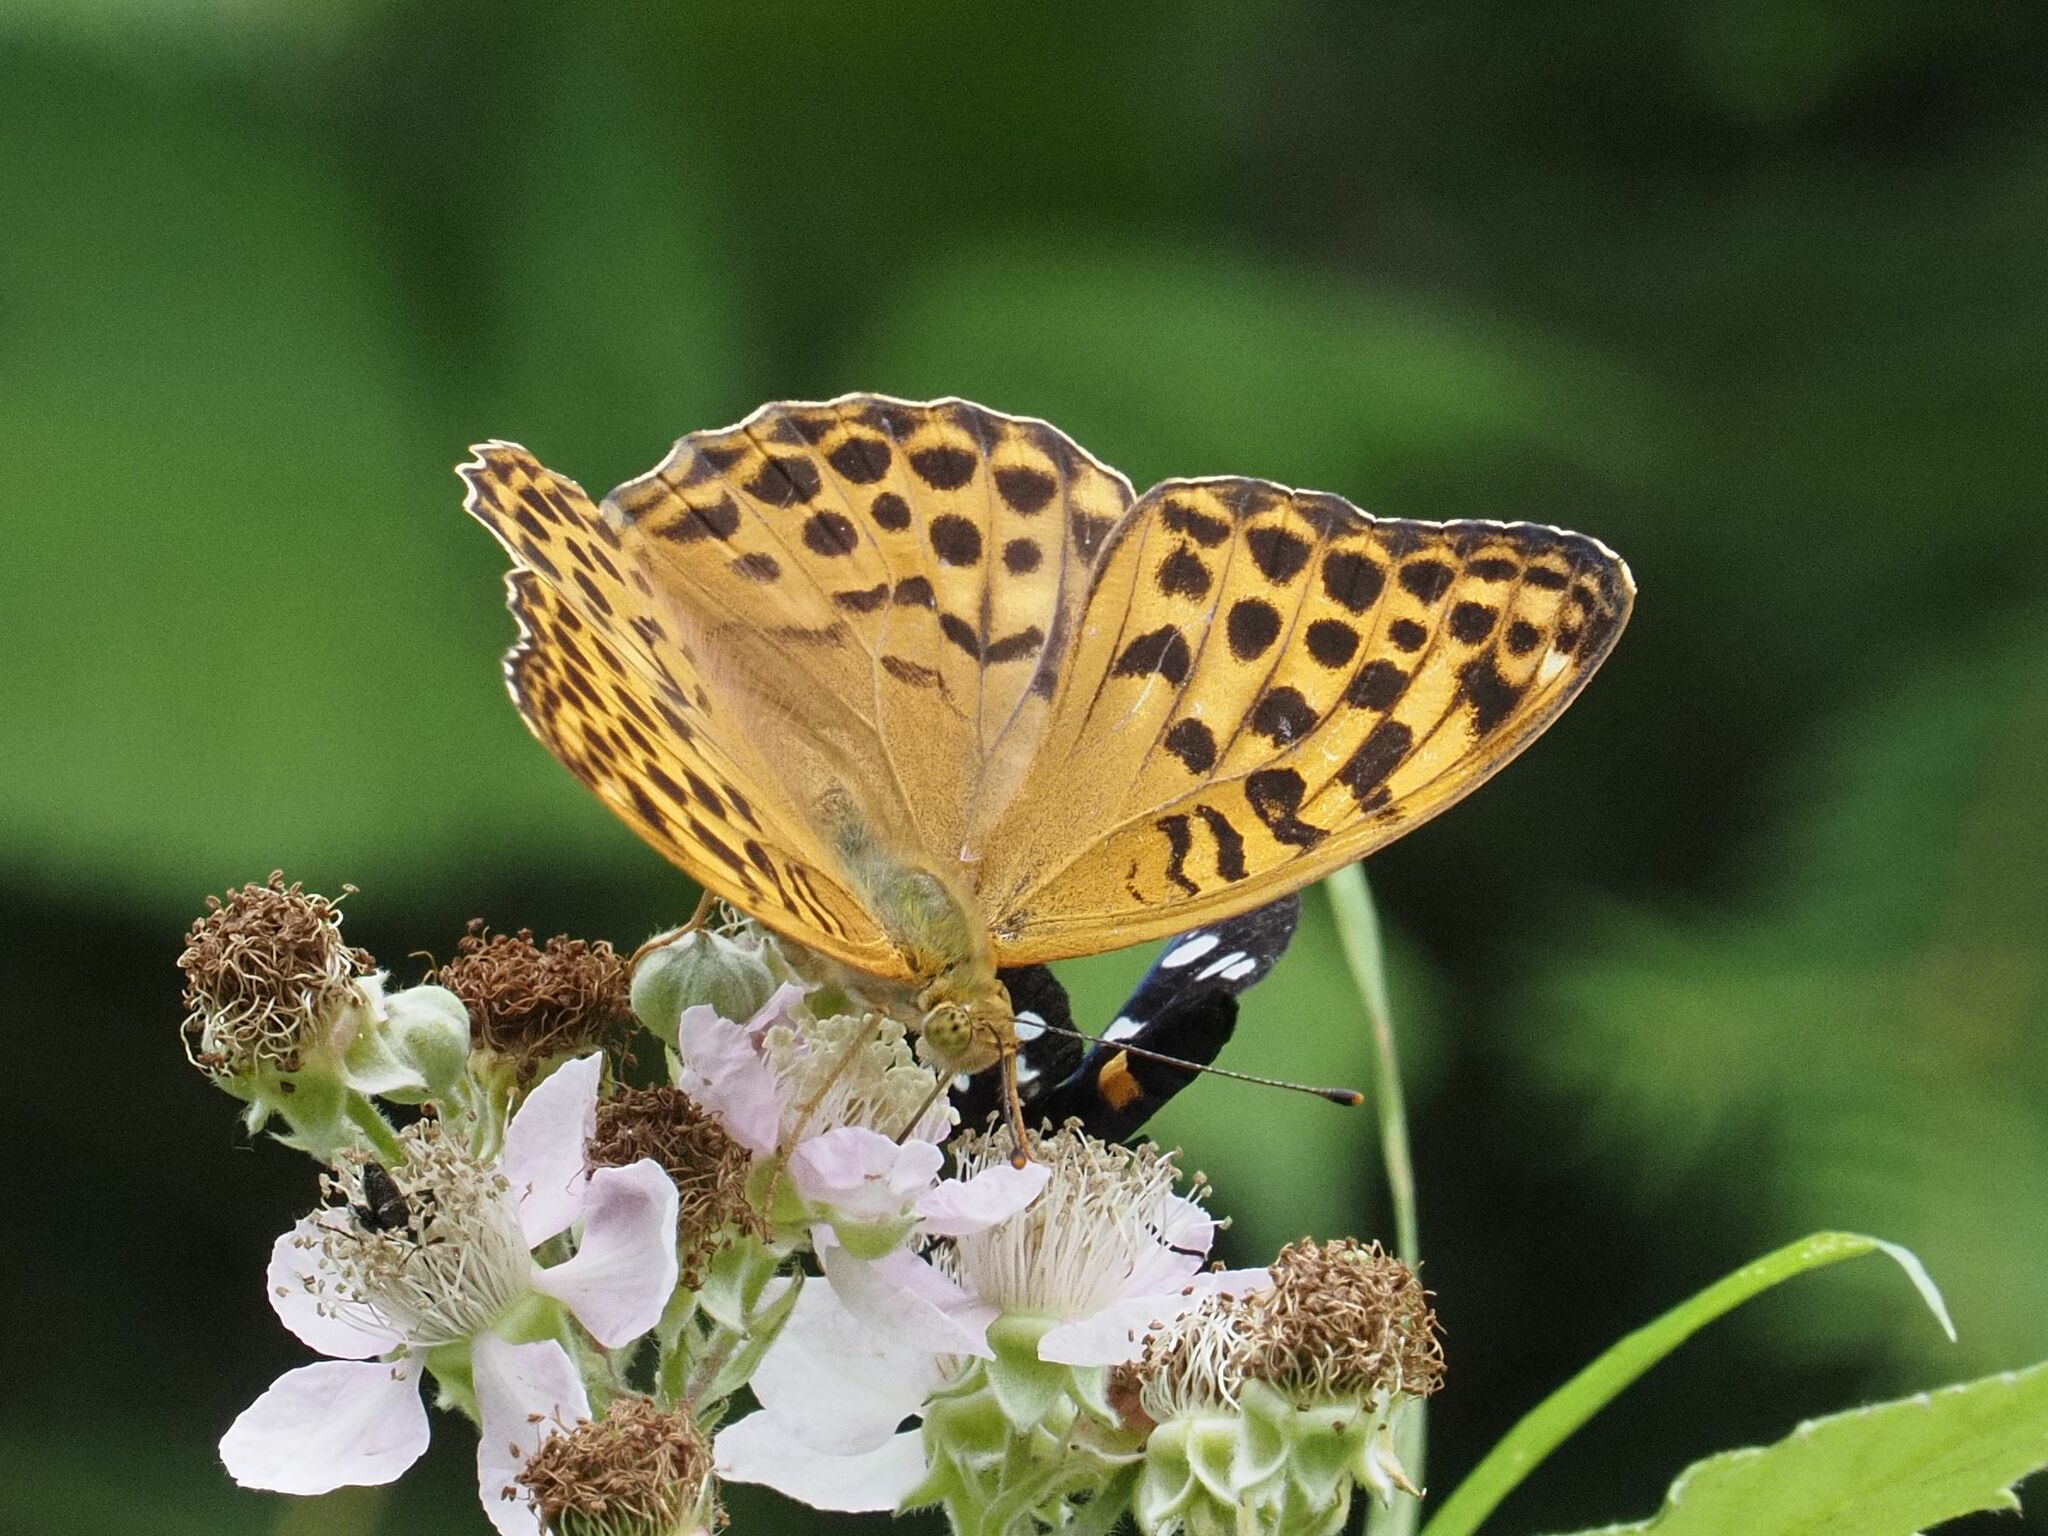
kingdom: Animalia
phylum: Arthropoda
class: Insecta
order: Lepidoptera
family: Nymphalidae
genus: Argynnis
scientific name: Argynnis paphia
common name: Silver-washed fritillary
